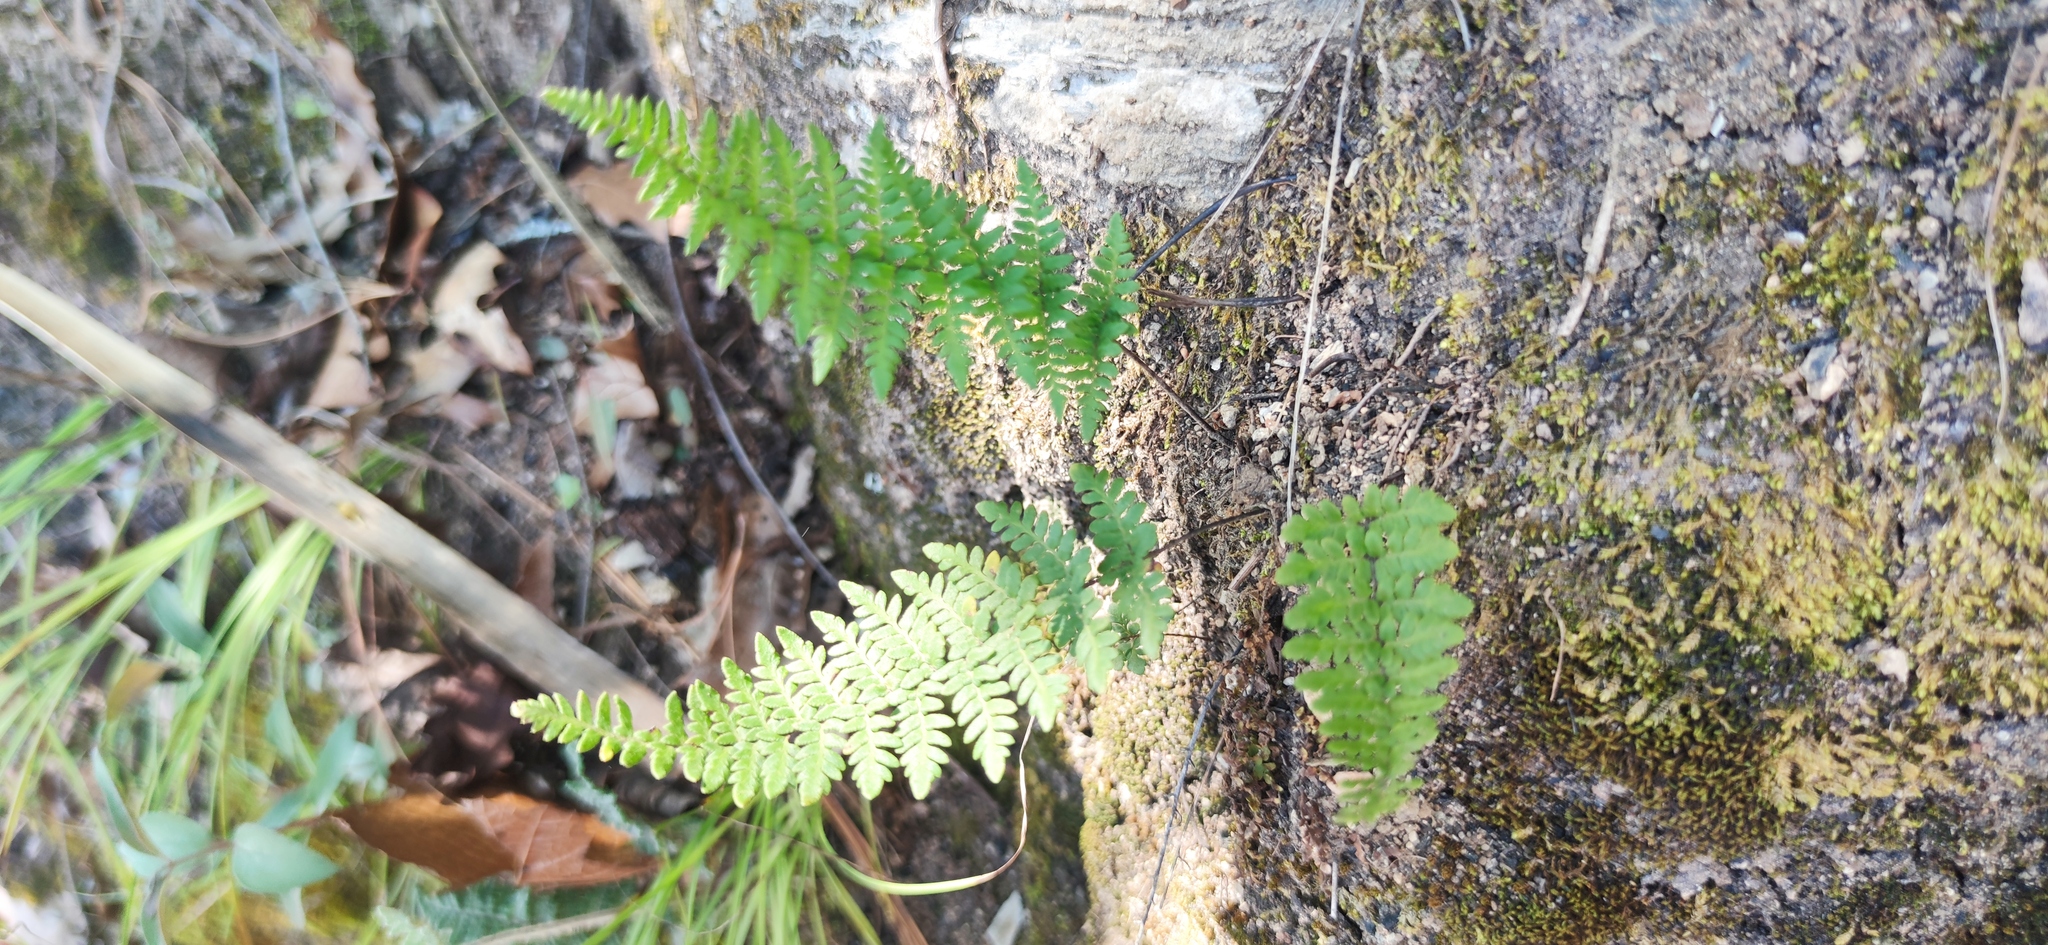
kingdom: Plantae
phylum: Tracheophyta
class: Polypodiopsida
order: Polypodiales
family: Pteridaceae
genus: Myriopteris
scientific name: Myriopteris alabamensis
